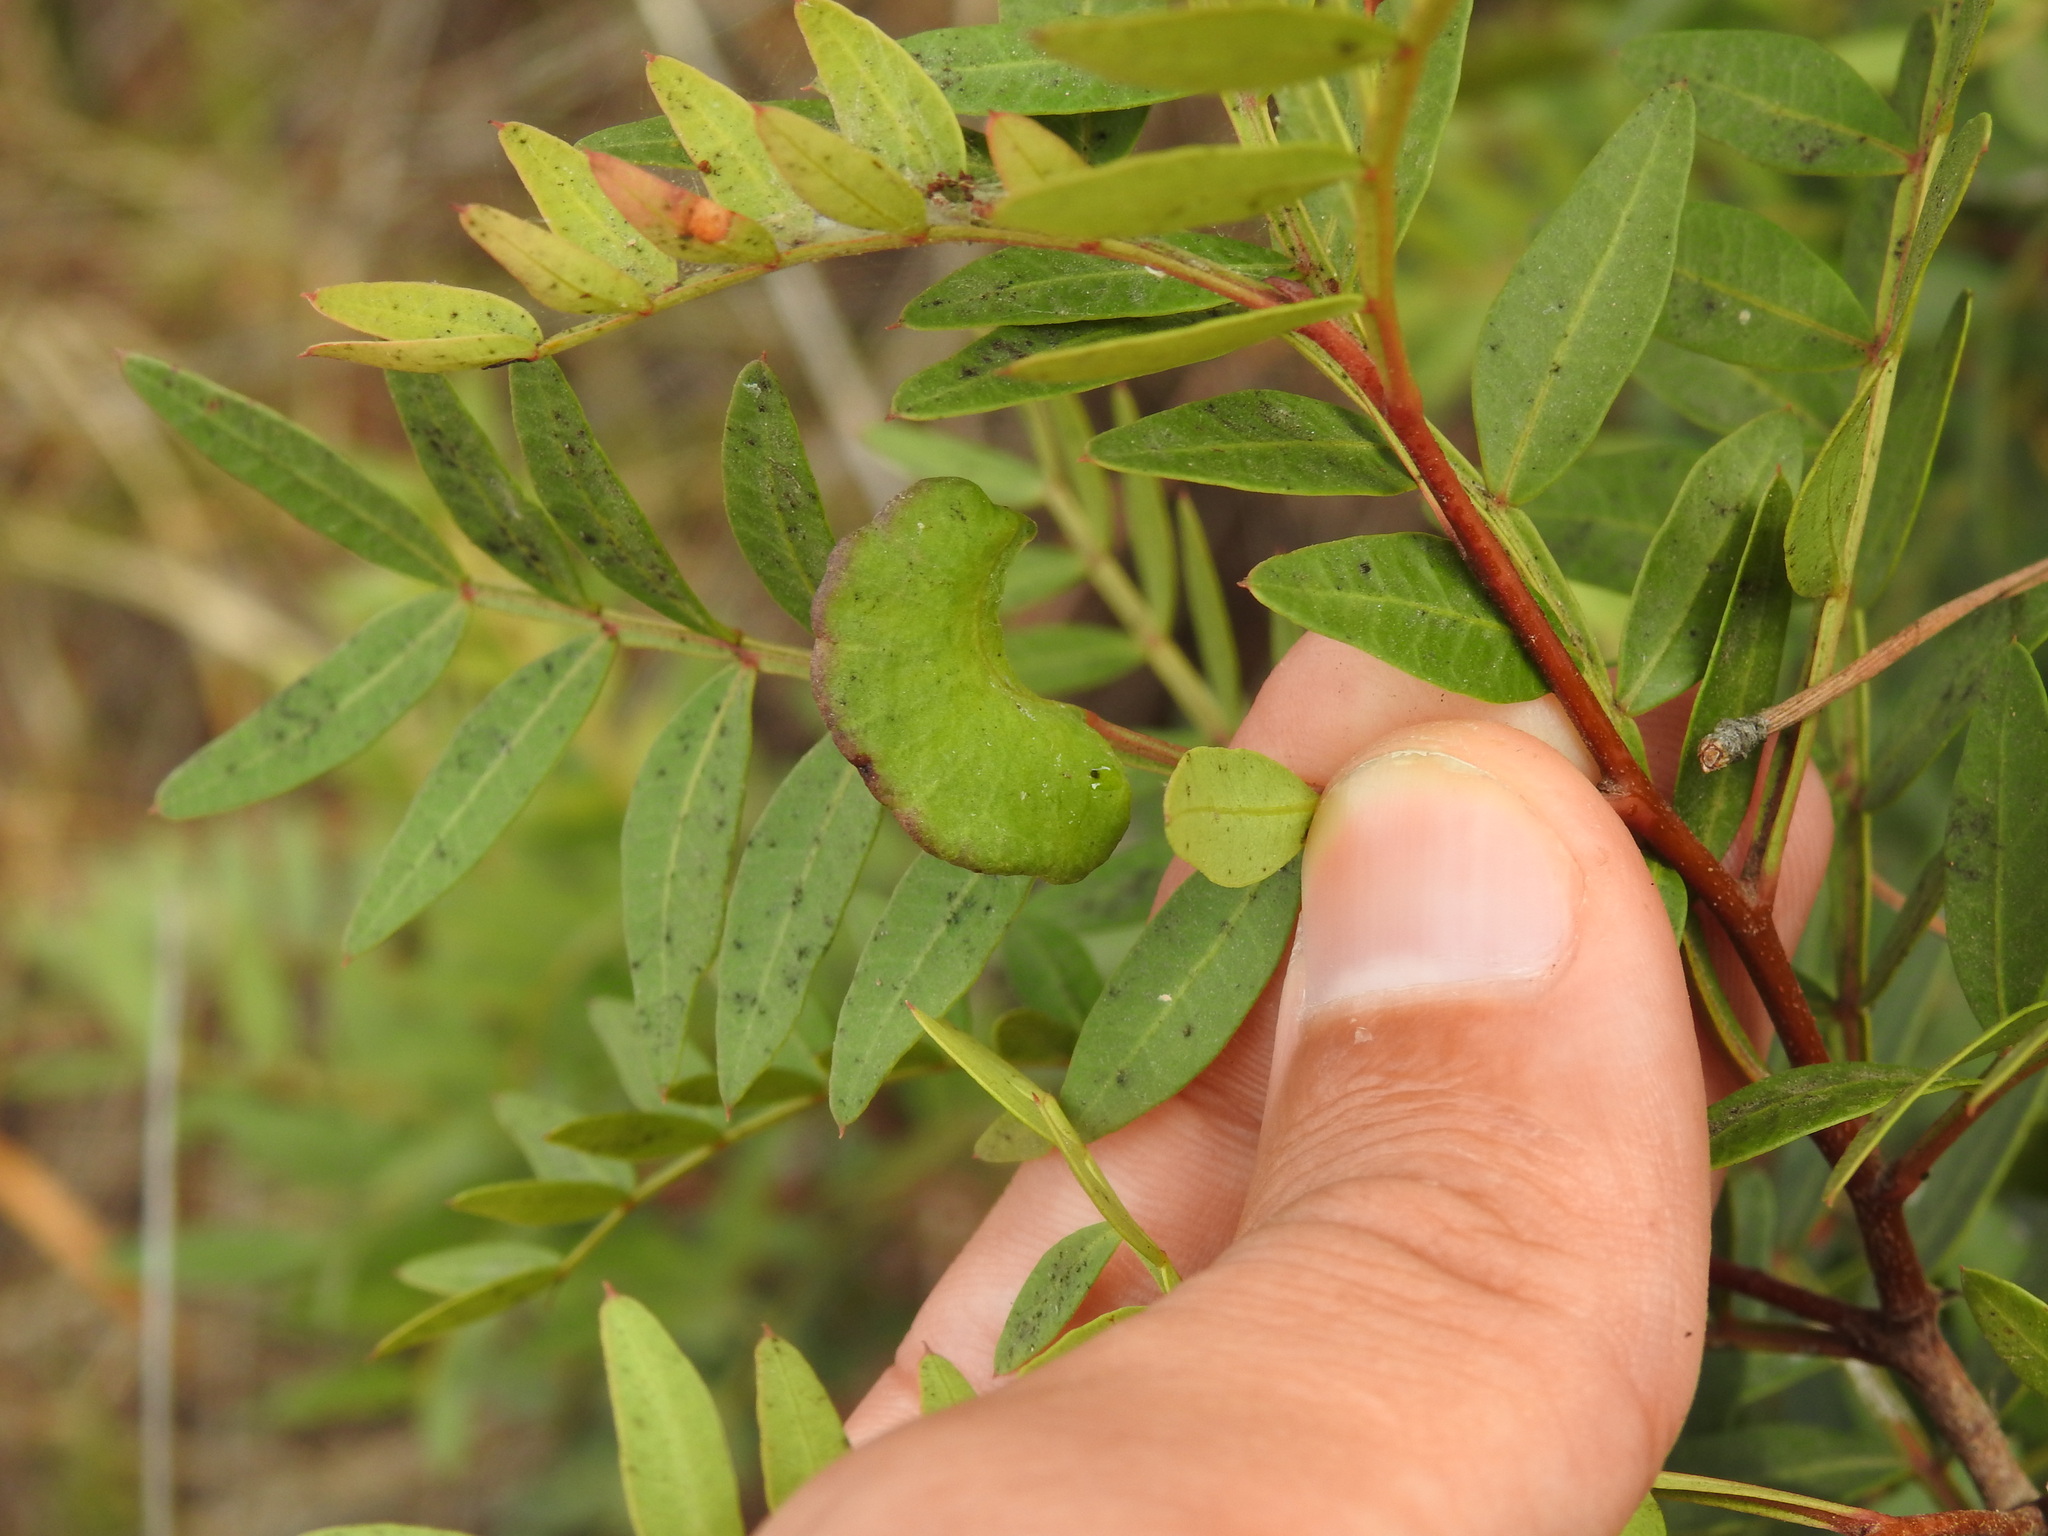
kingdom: Animalia
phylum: Arthropoda
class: Insecta
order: Hemiptera
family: Aphididae
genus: Aploneura
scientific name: Aploneura lentisci
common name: Mealy grass root aphid
